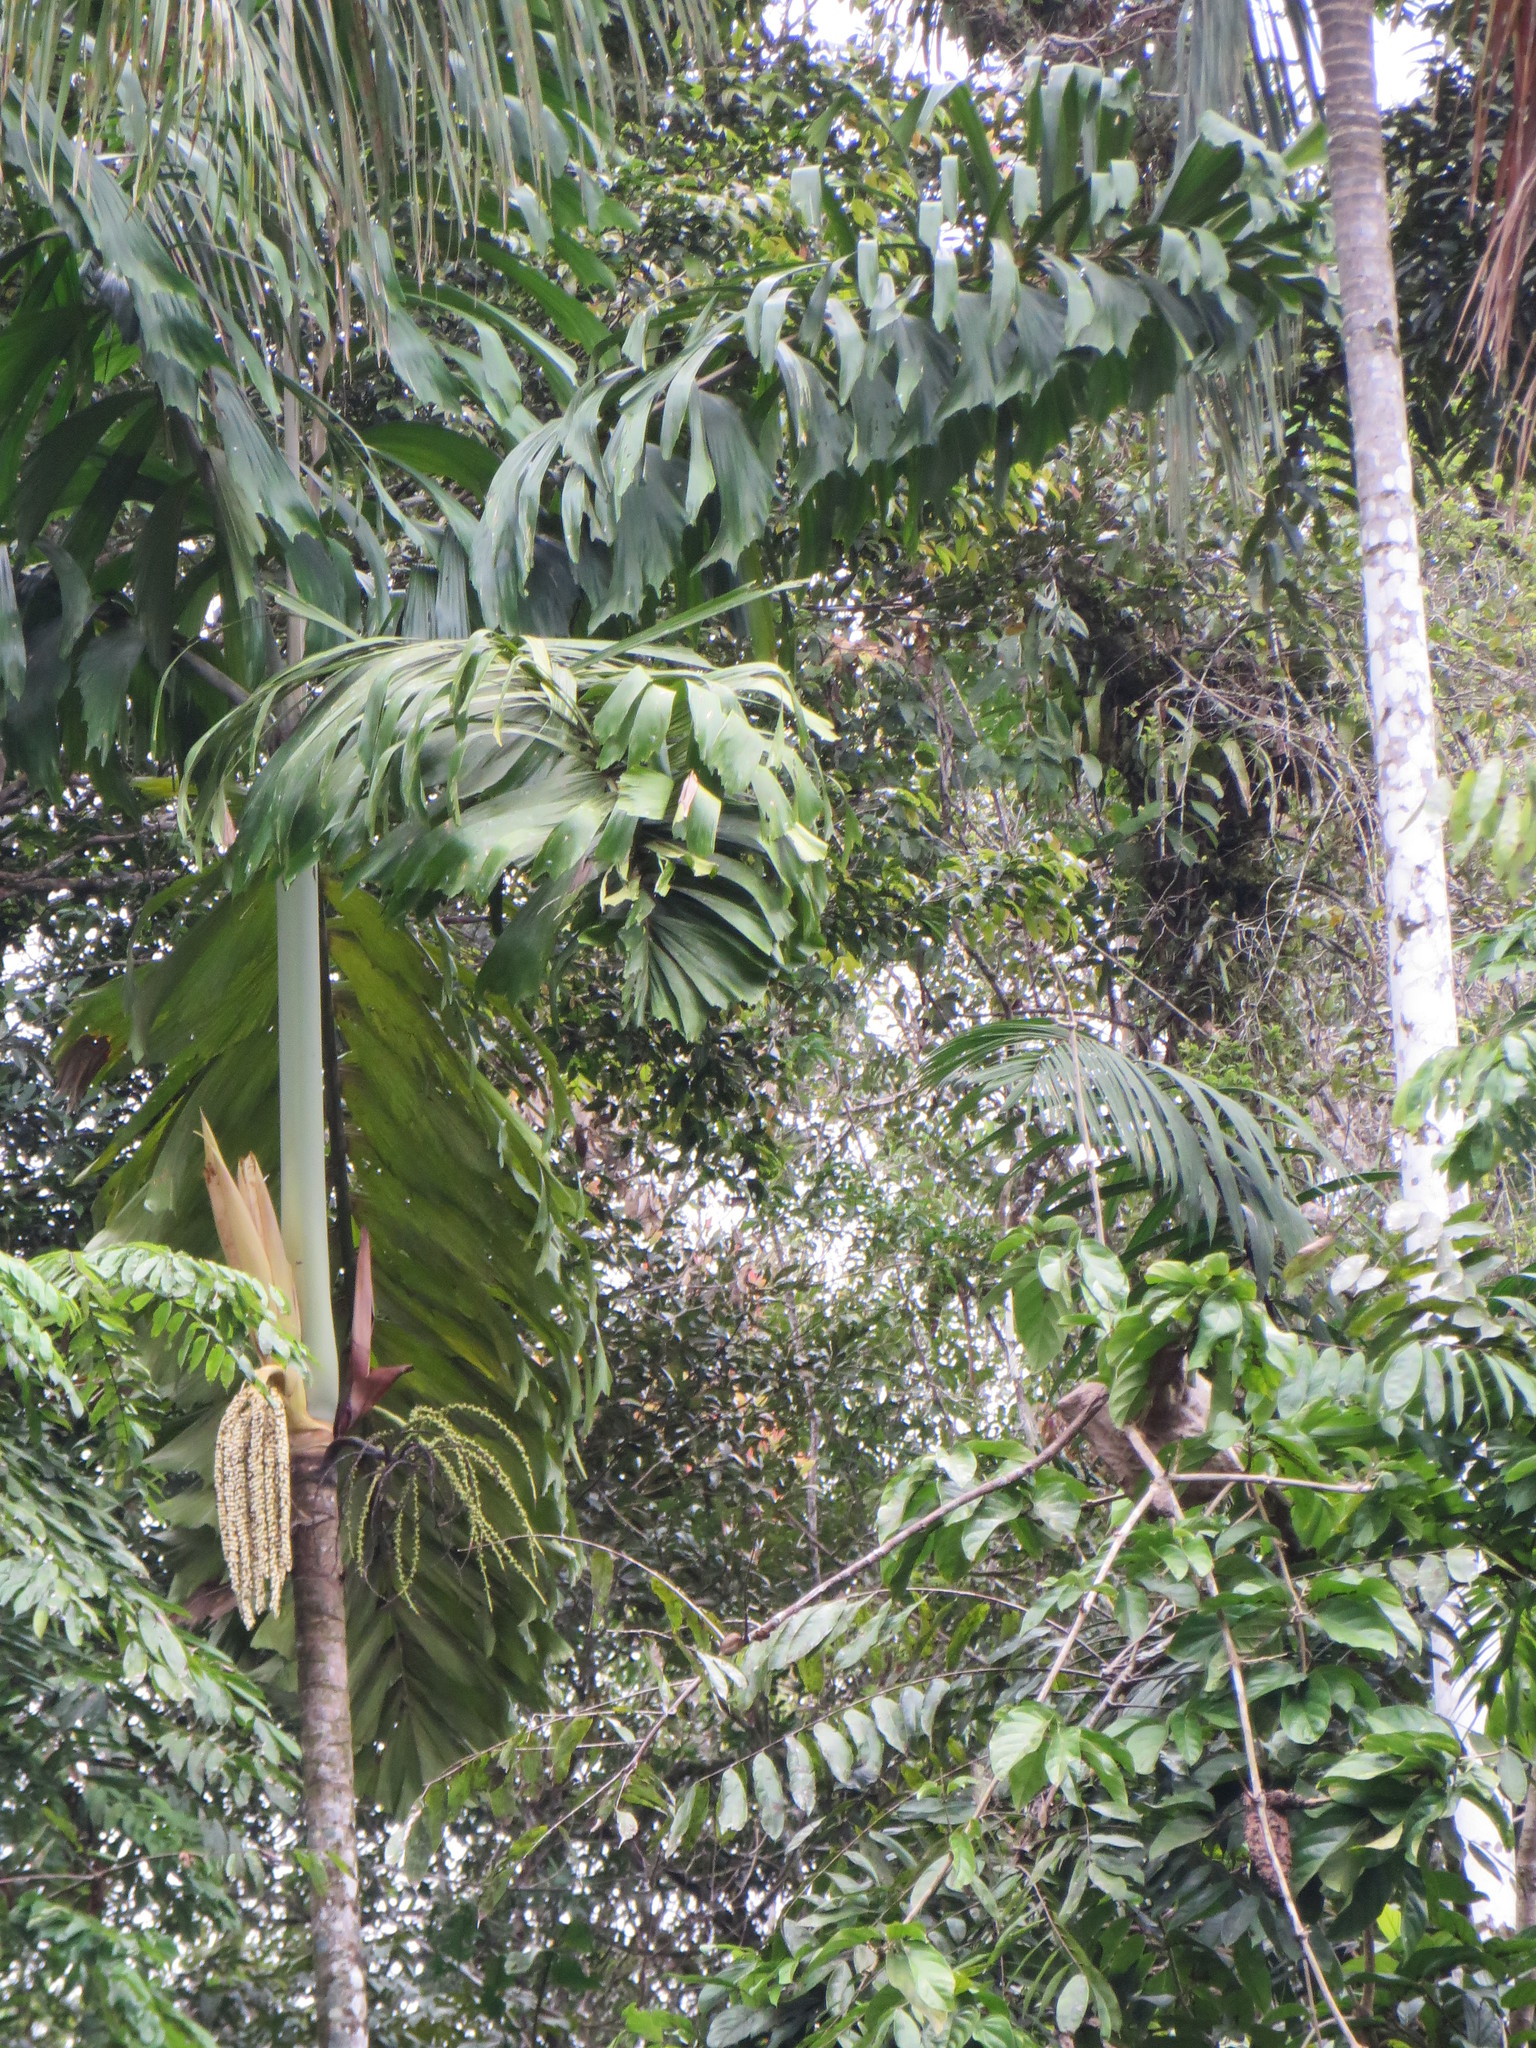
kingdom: Plantae
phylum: Tracheophyta
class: Liliopsida
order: Arecales
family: Arecaceae
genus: Socratea
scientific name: Socratea exorrhiza
